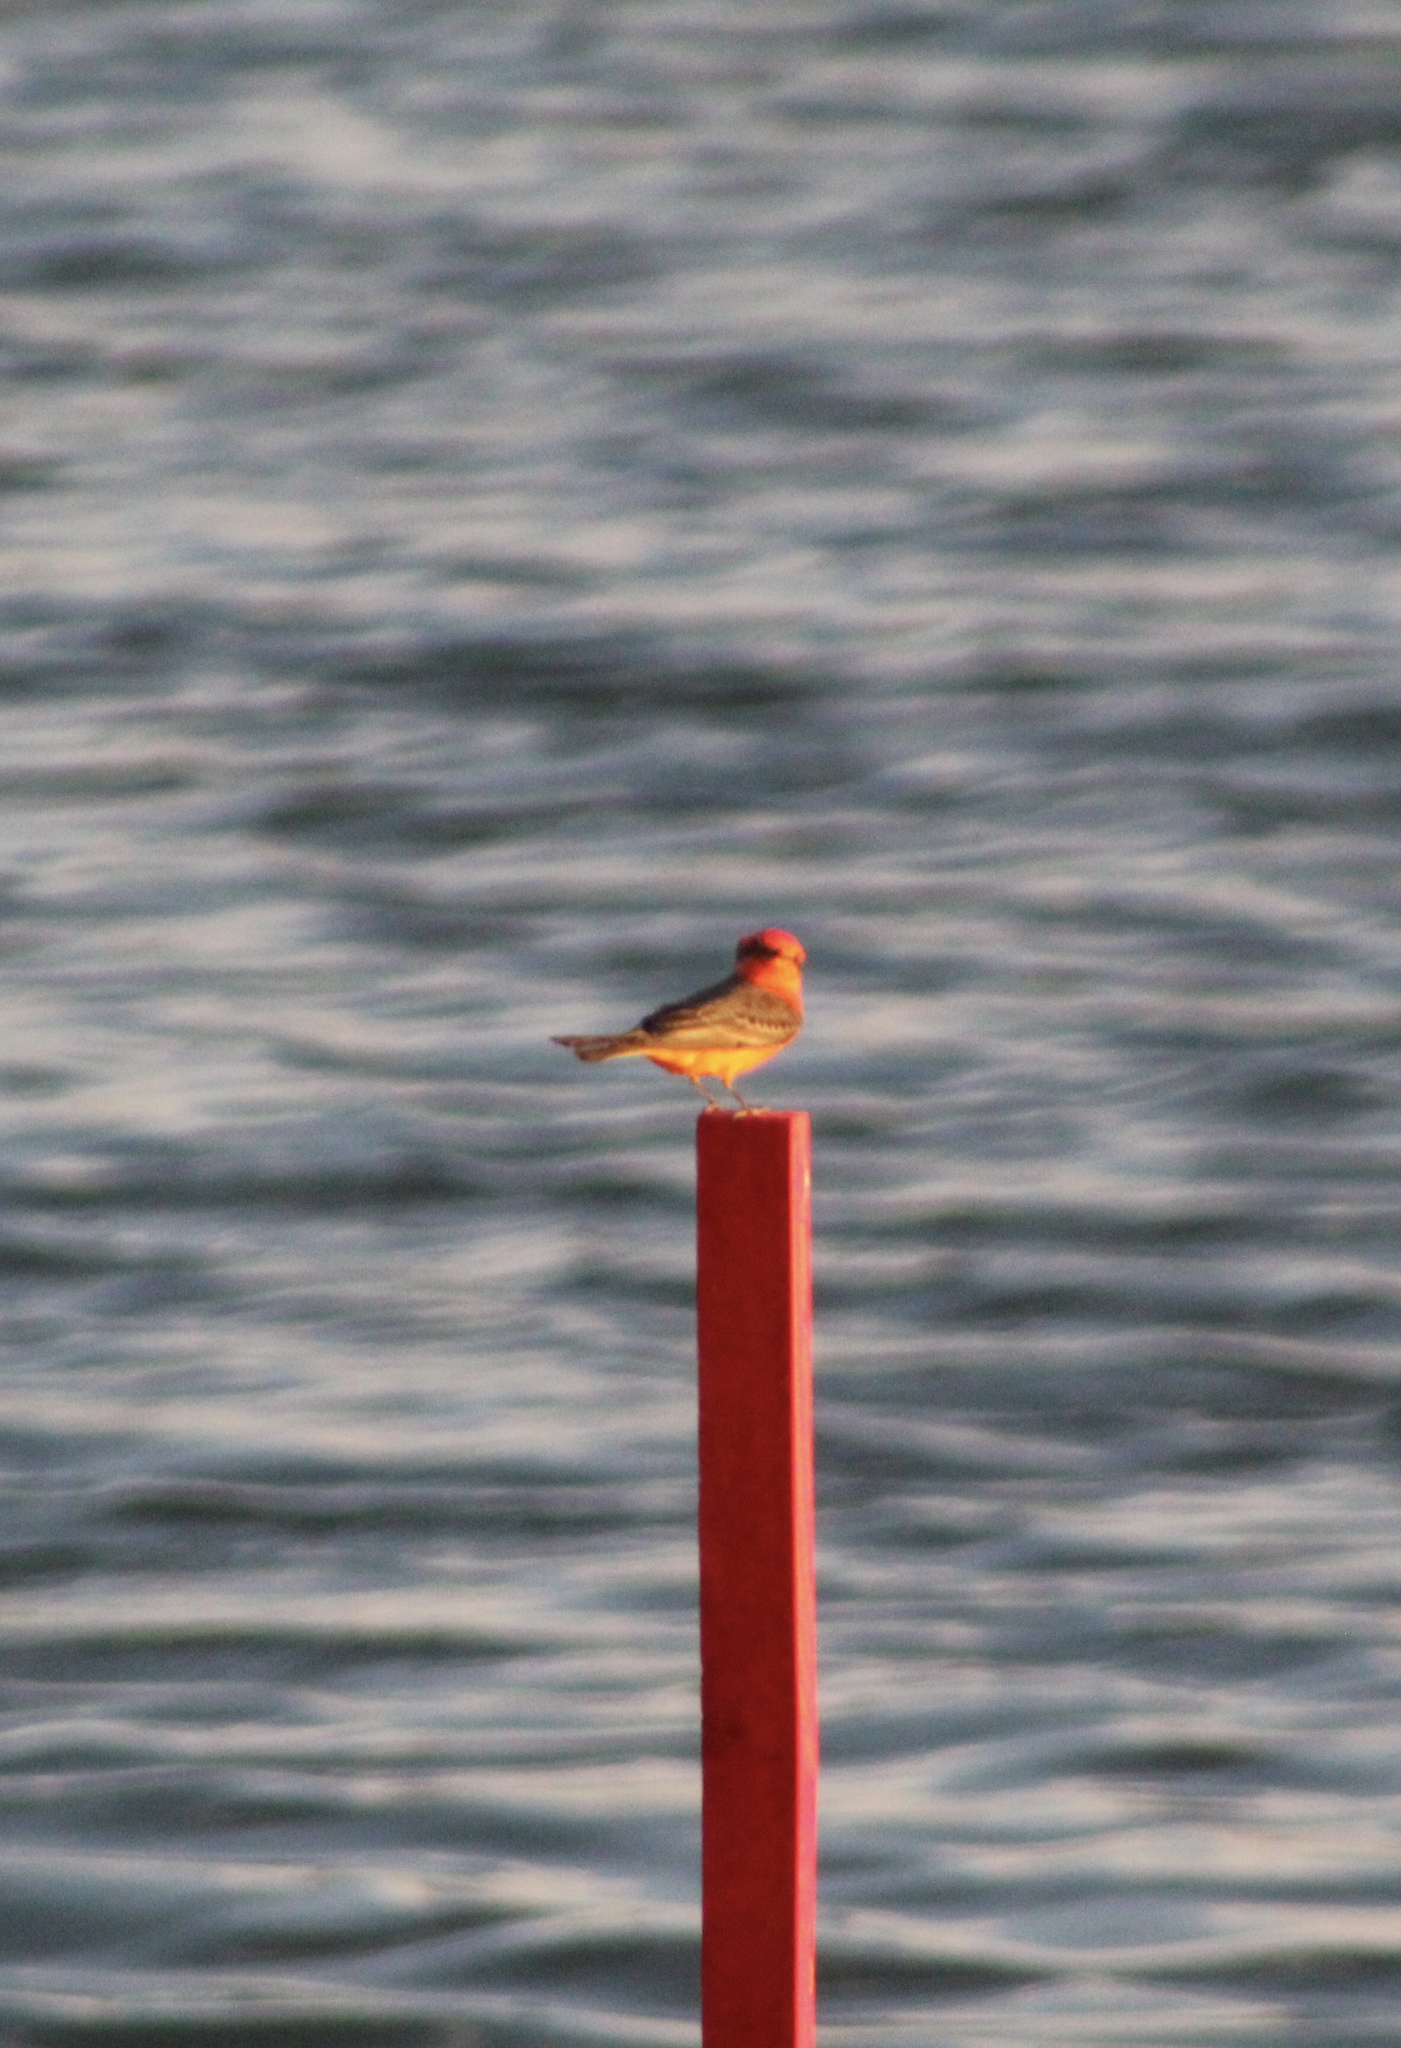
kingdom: Animalia
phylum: Chordata
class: Aves
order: Passeriformes
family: Tyrannidae
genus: Pyrocephalus
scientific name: Pyrocephalus rubinus
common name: Vermilion flycatcher
